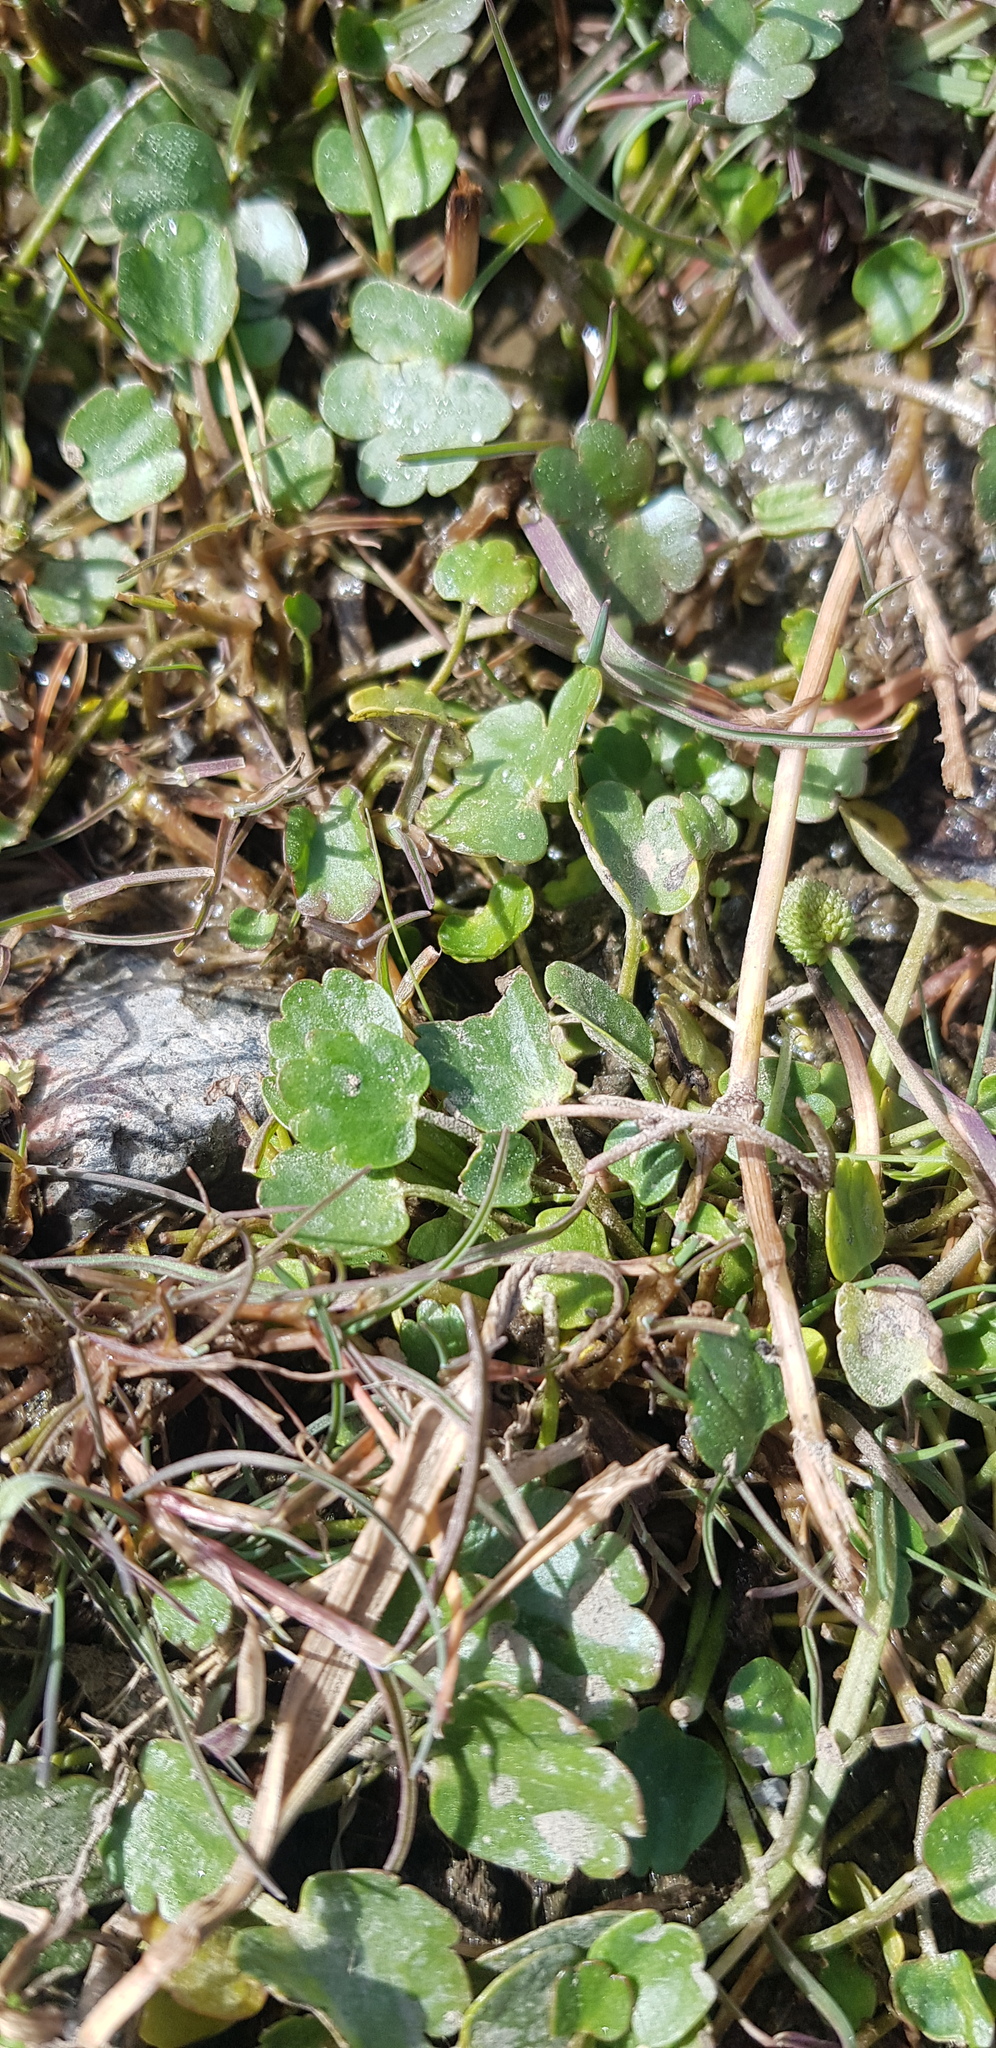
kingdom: Plantae
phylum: Tracheophyta
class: Magnoliopsida
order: Ranunculales
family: Ranunculaceae
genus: Halerpestes
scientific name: Halerpestes sarmentosus
